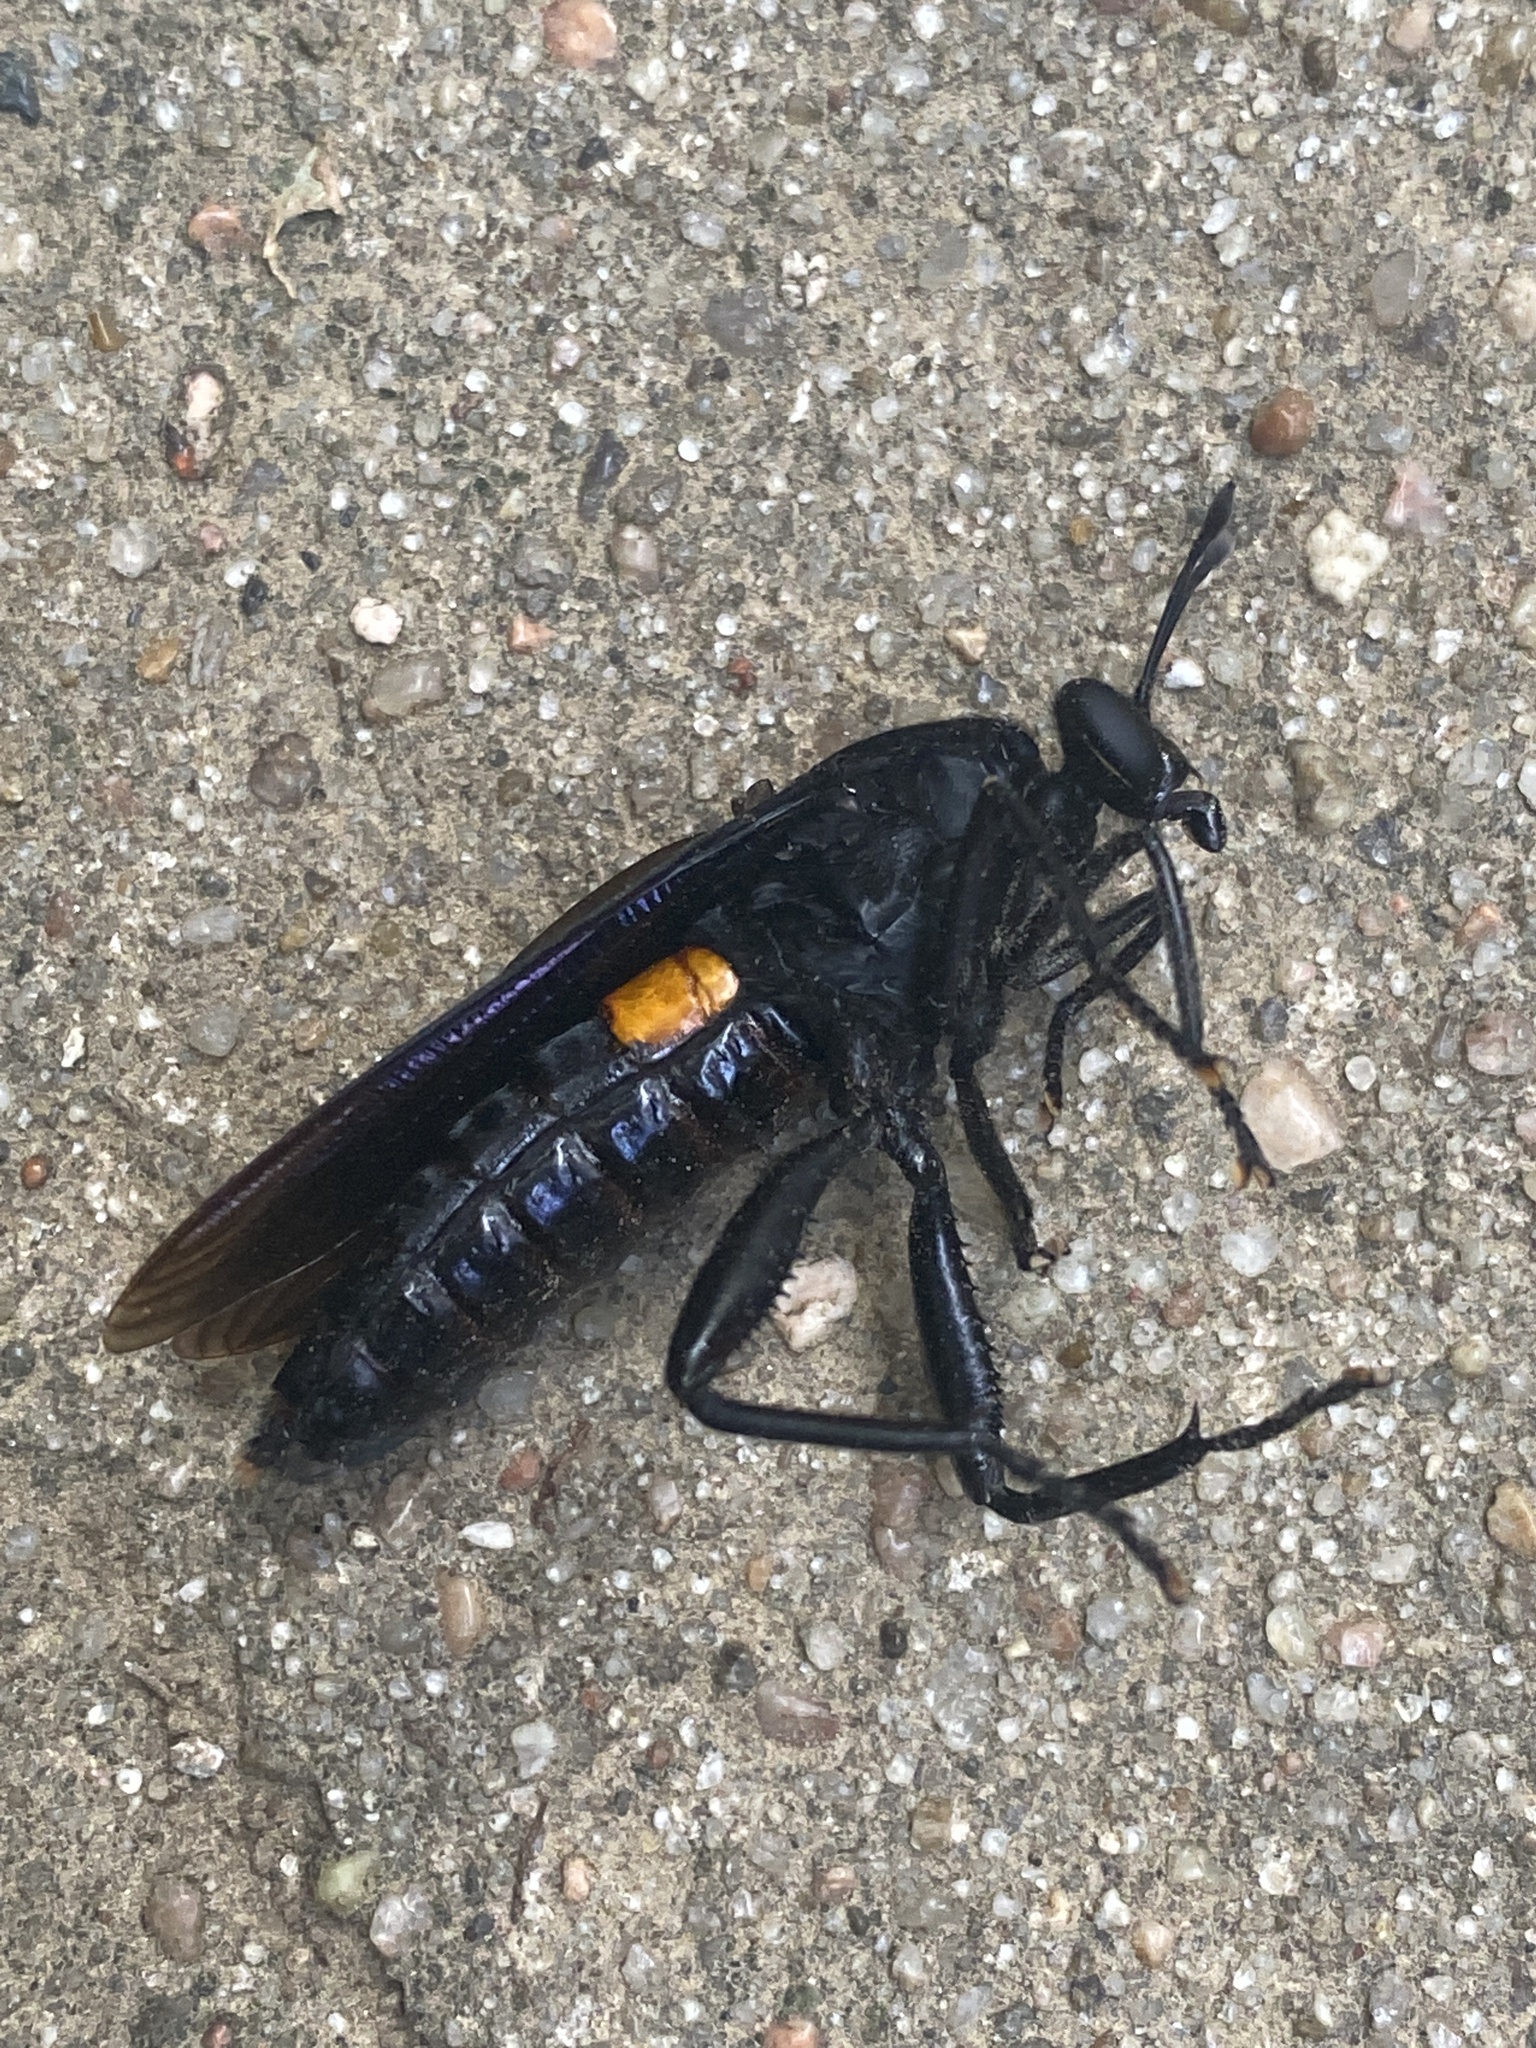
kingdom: Animalia
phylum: Arthropoda
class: Insecta
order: Diptera
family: Mydidae
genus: Mydas
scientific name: Mydas clavatus
